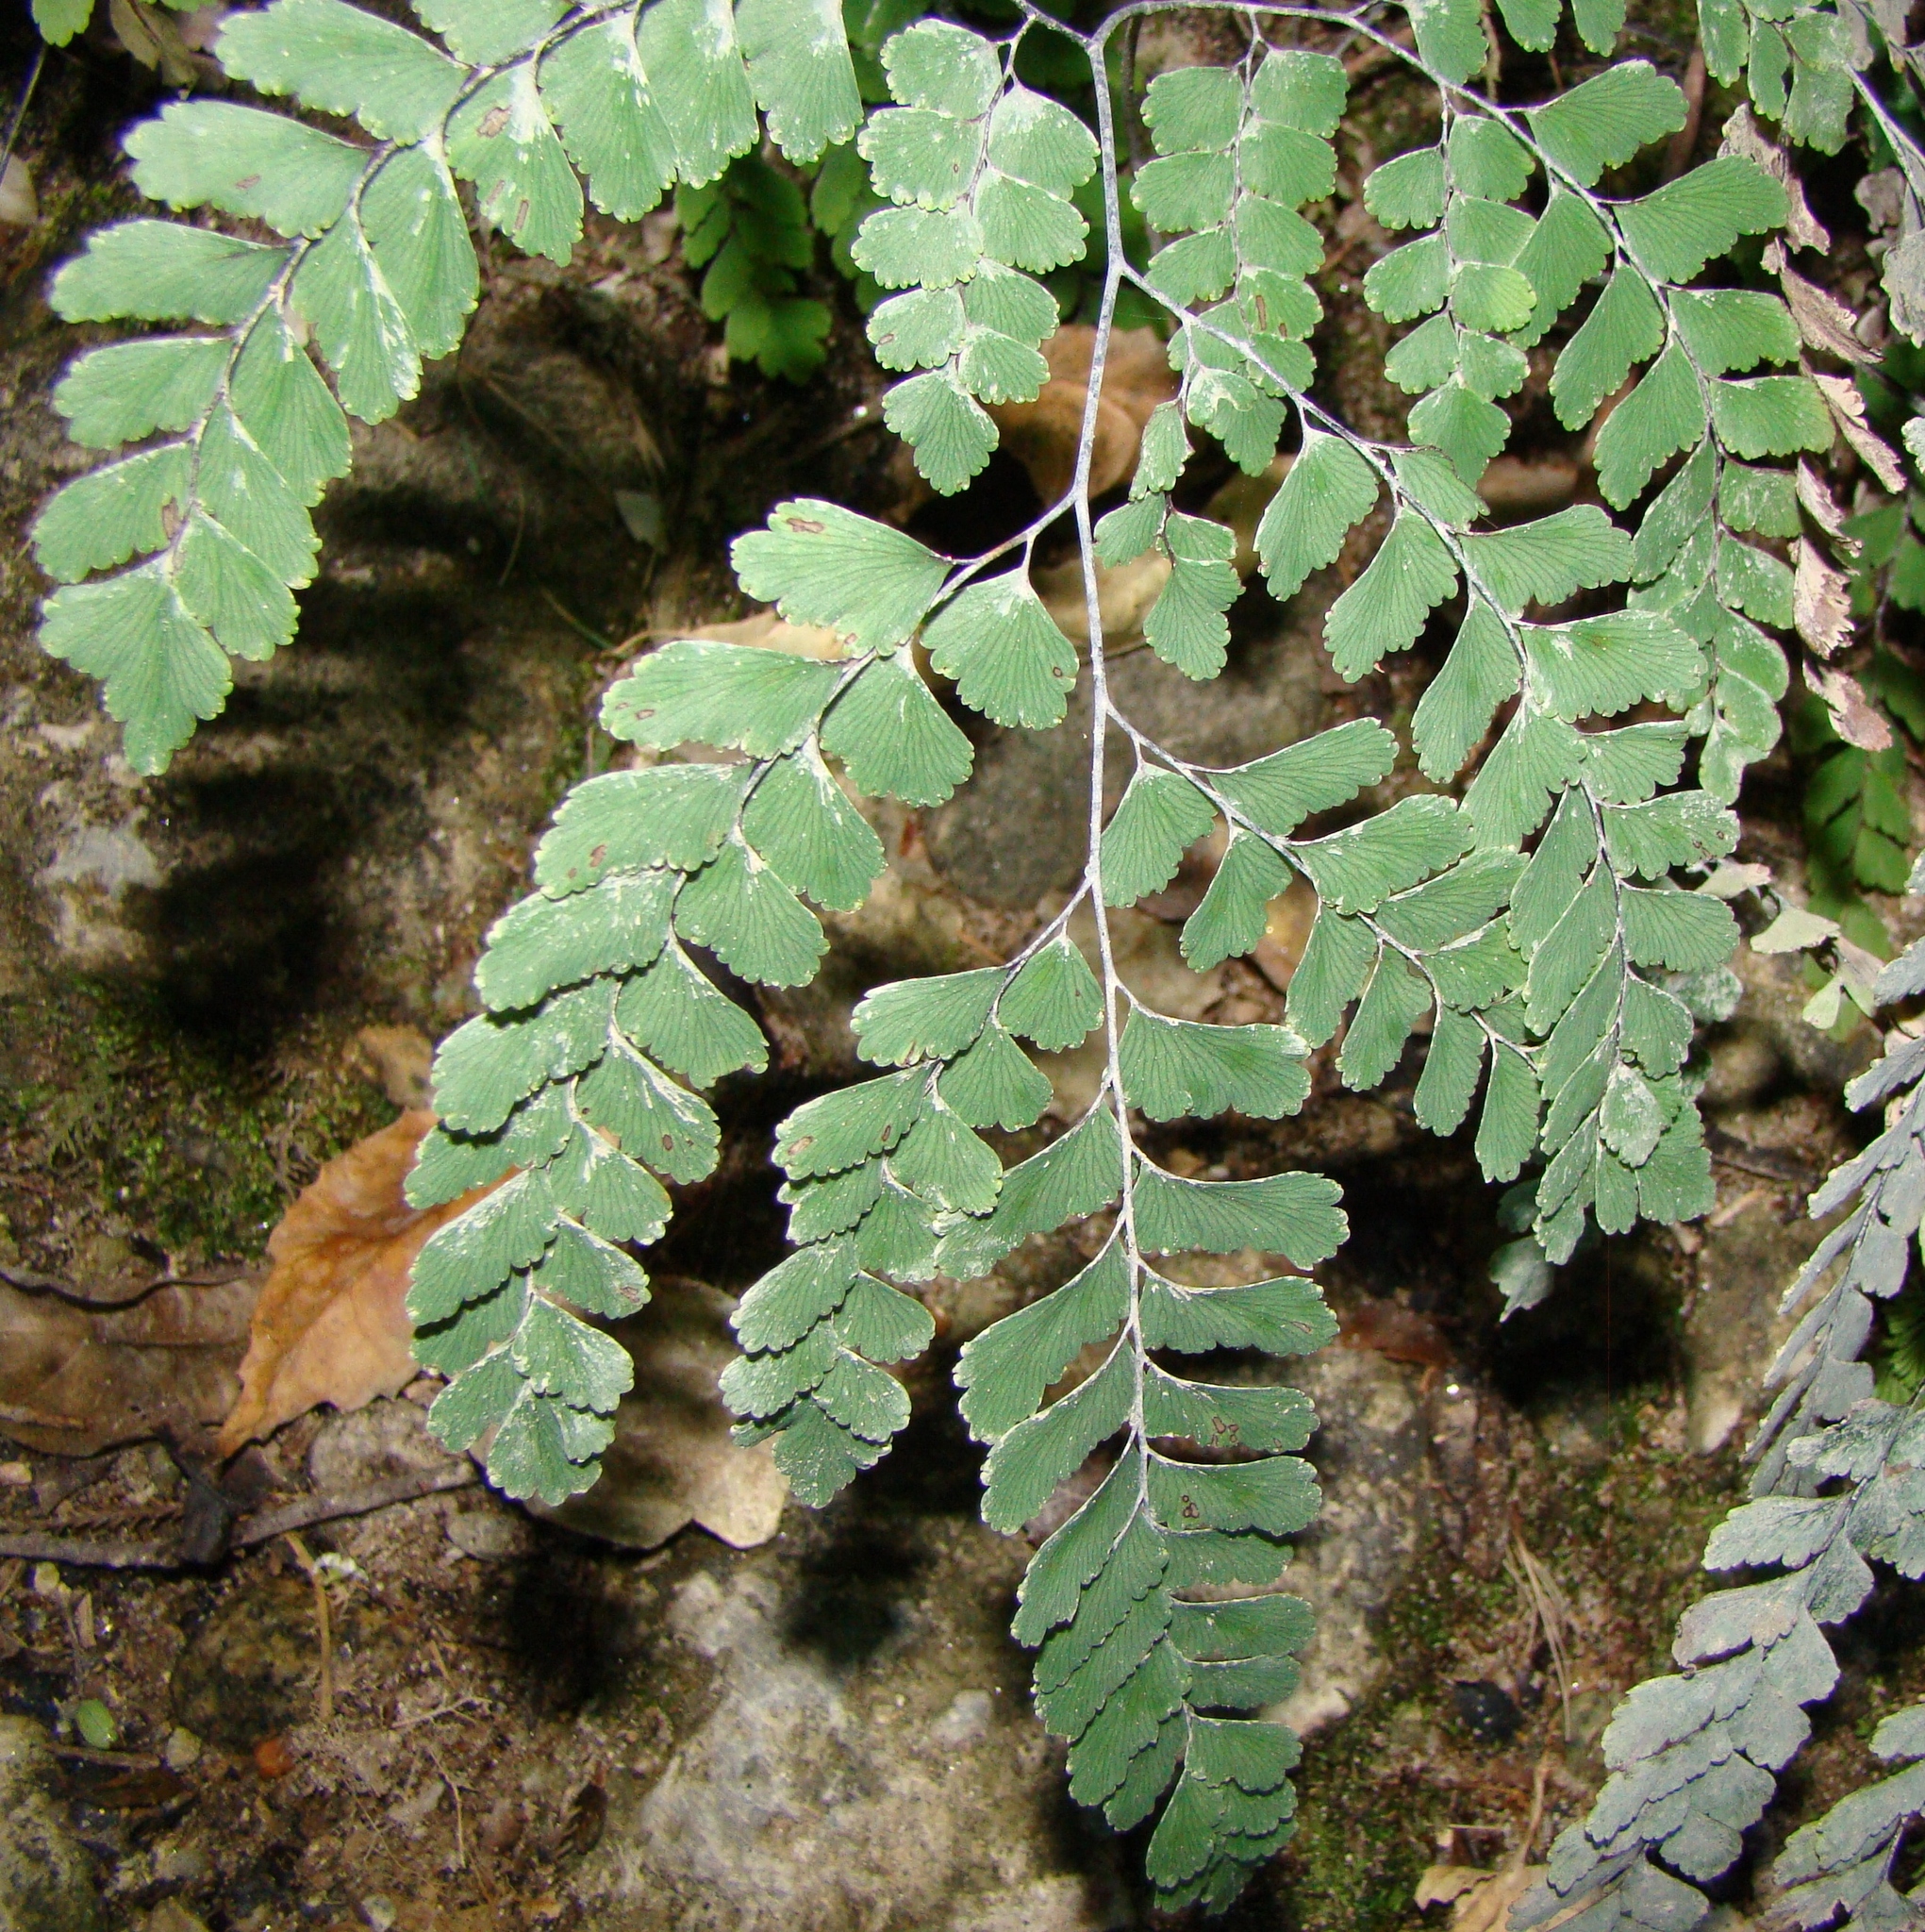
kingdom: Plantae
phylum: Tracheophyta
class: Polypodiopsida
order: Polypodiales
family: Pteridaceae
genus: Adiantum
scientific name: Adiantum cunninghamii
